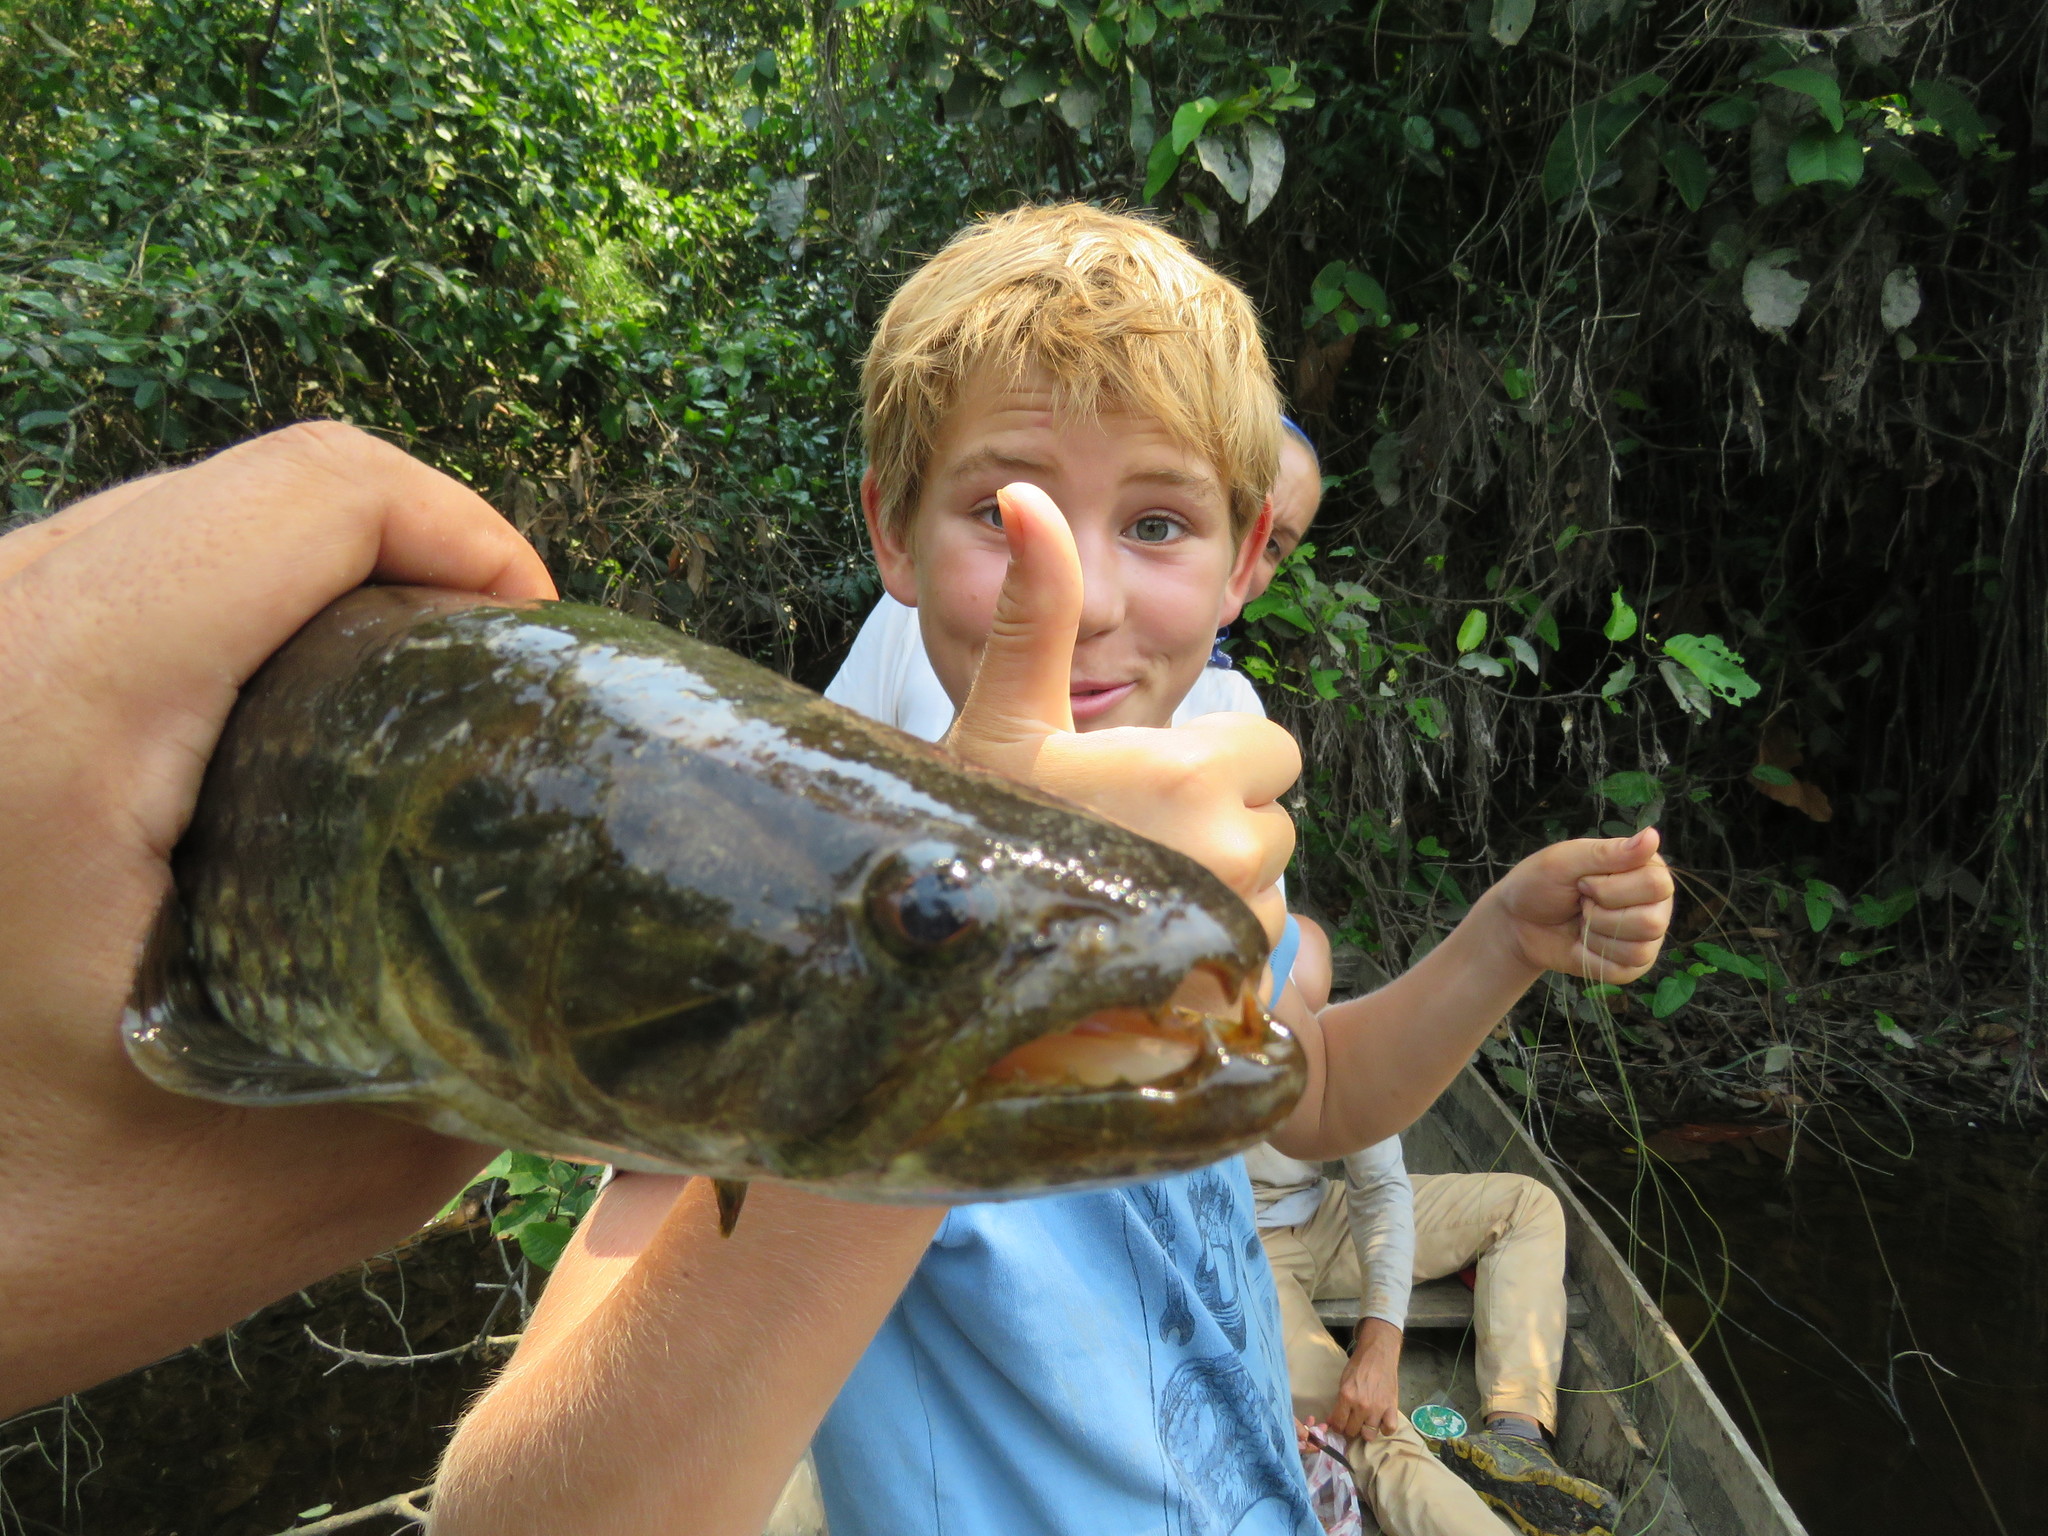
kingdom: Animalia
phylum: Chordata
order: Characiformes
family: Erythrinidae
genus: Hoplias
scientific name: Hoplias malabaricus
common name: Trahira
